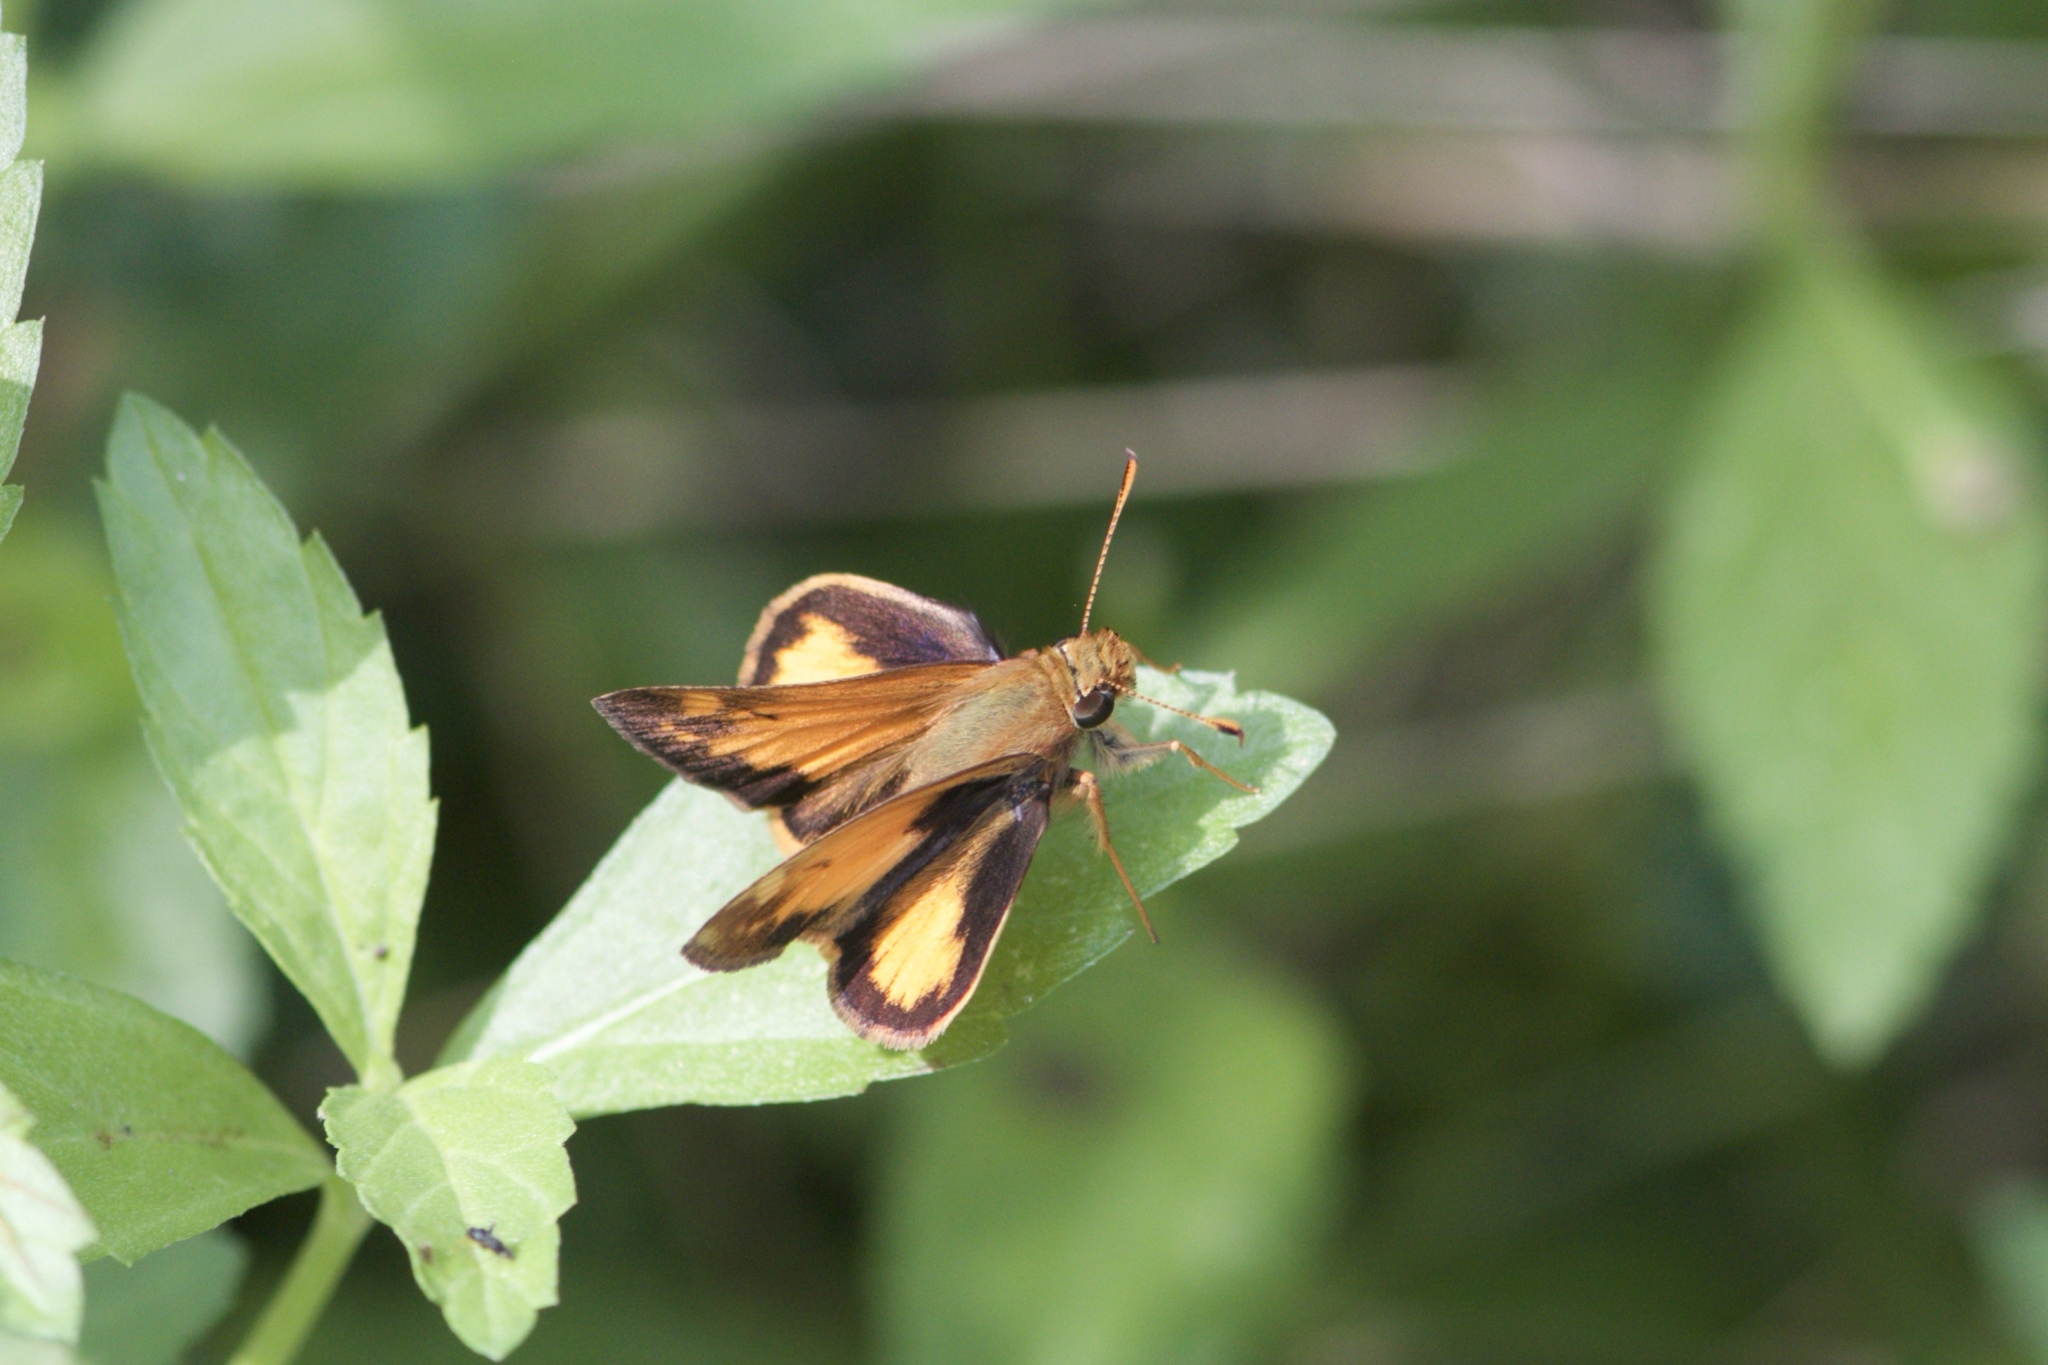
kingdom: Animalia
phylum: Arthropoda
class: Insecta
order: Lepidoptera
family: Hesperiidae
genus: Lon
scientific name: Lon zabulon
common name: Zabulon skipper
